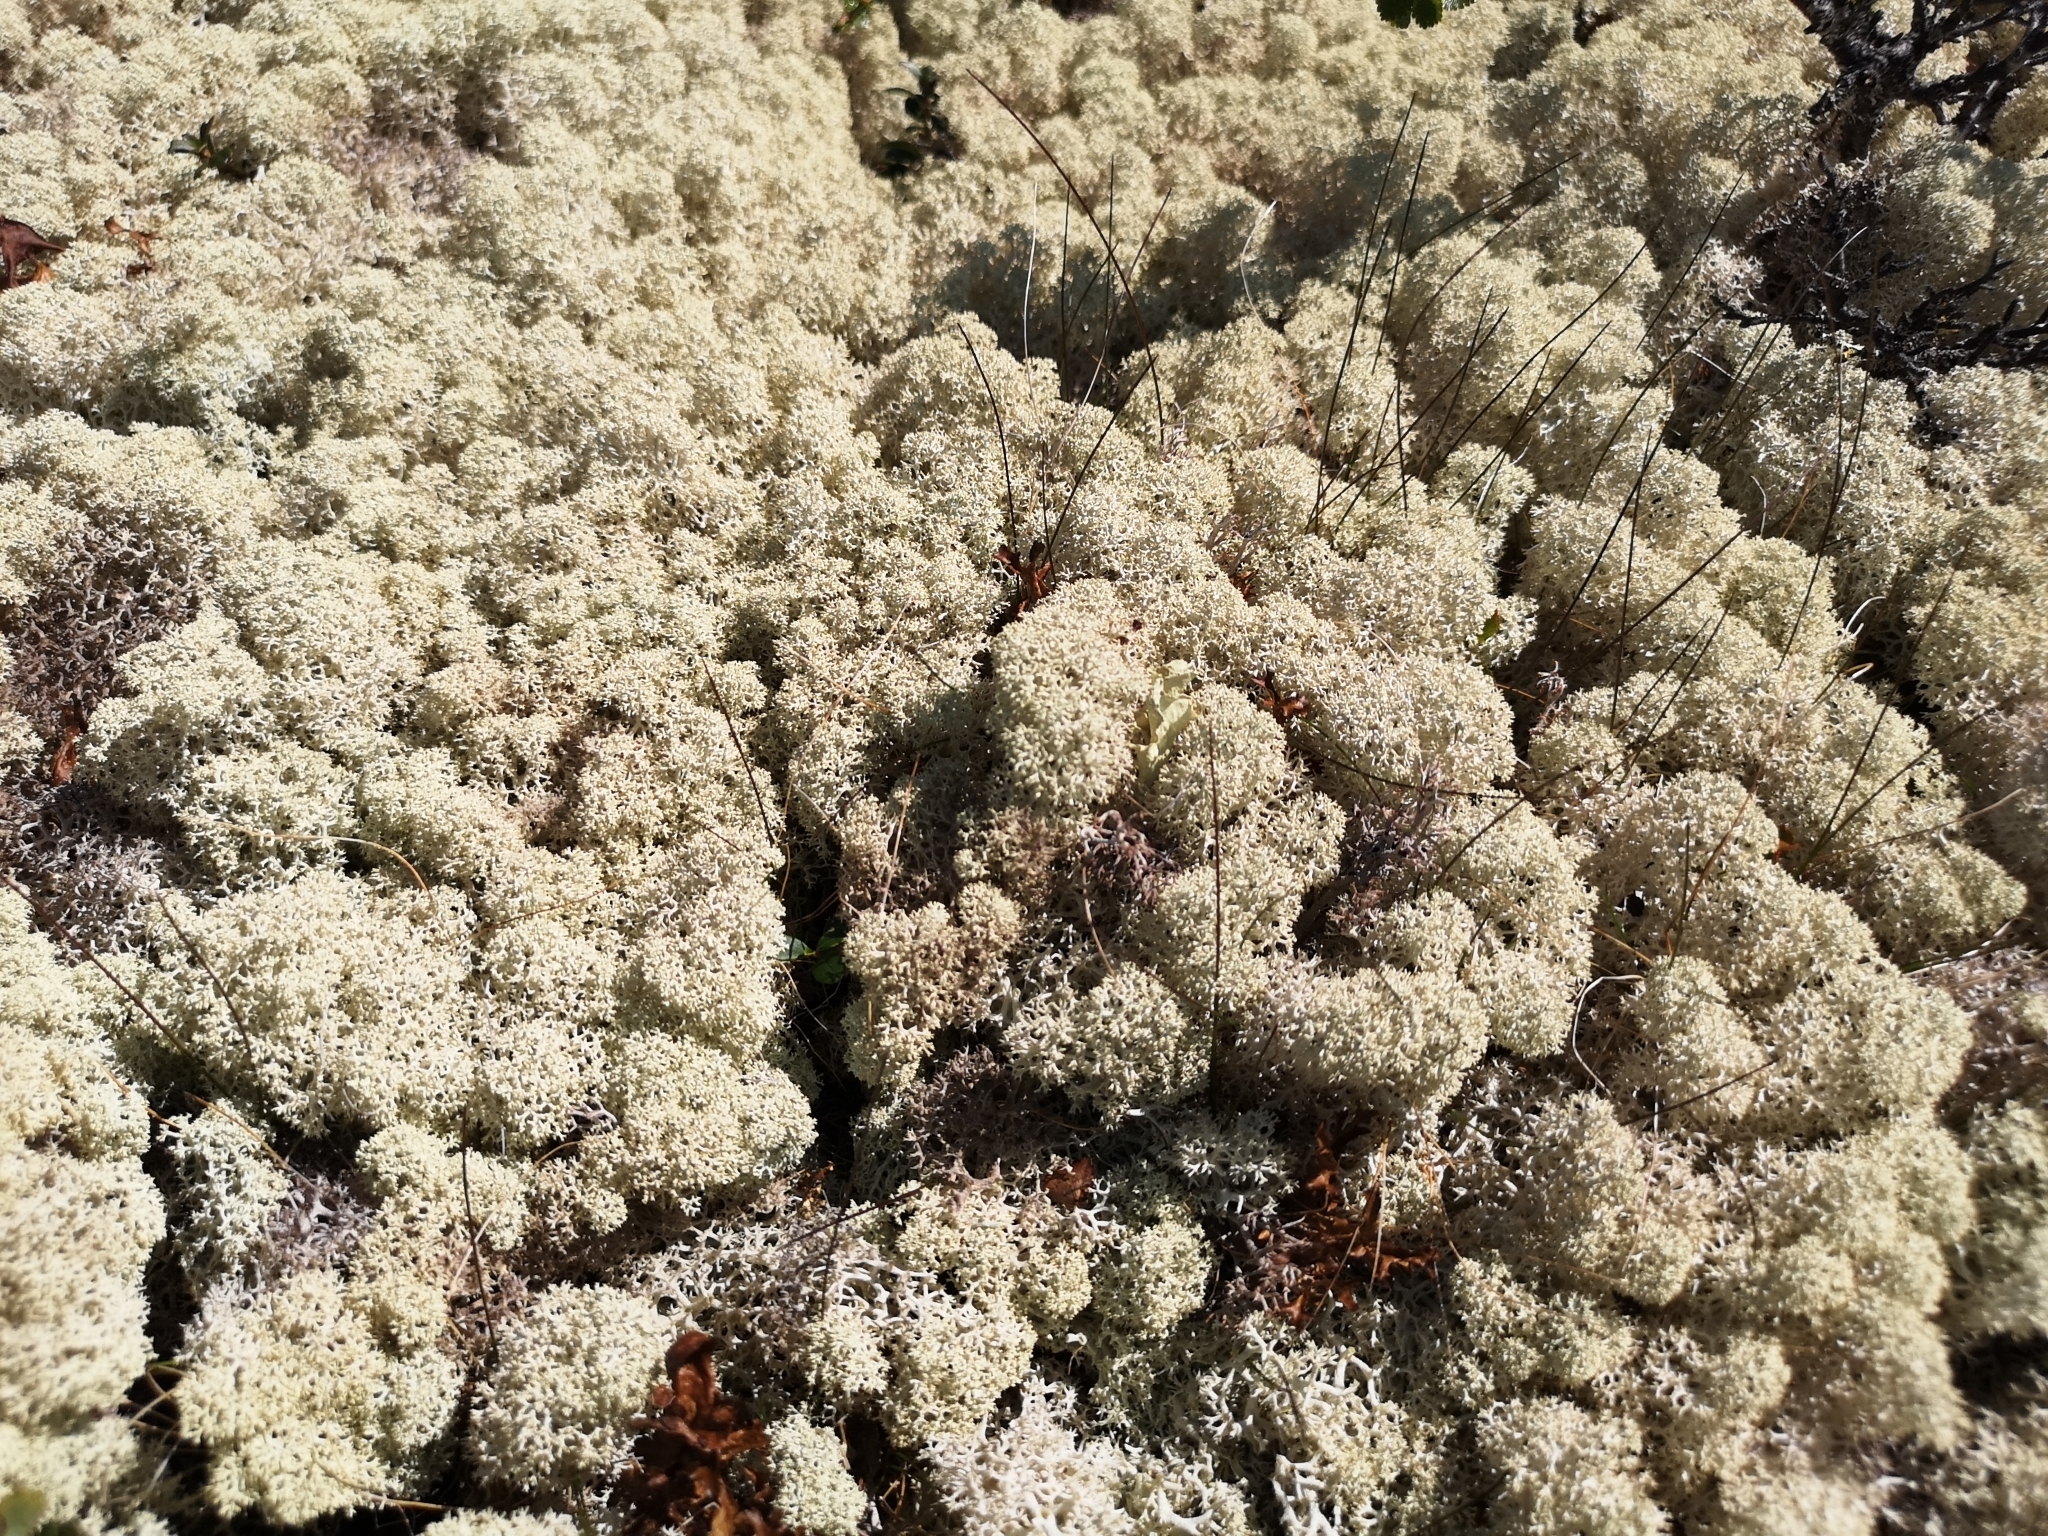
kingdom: Fungi
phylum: Ascomycota
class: Lecanoromycetes
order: Lecanorales
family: Cladoniaceae
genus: Cladonia
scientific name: Cladonia stellaris
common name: Star-tipped reindeer lichen
